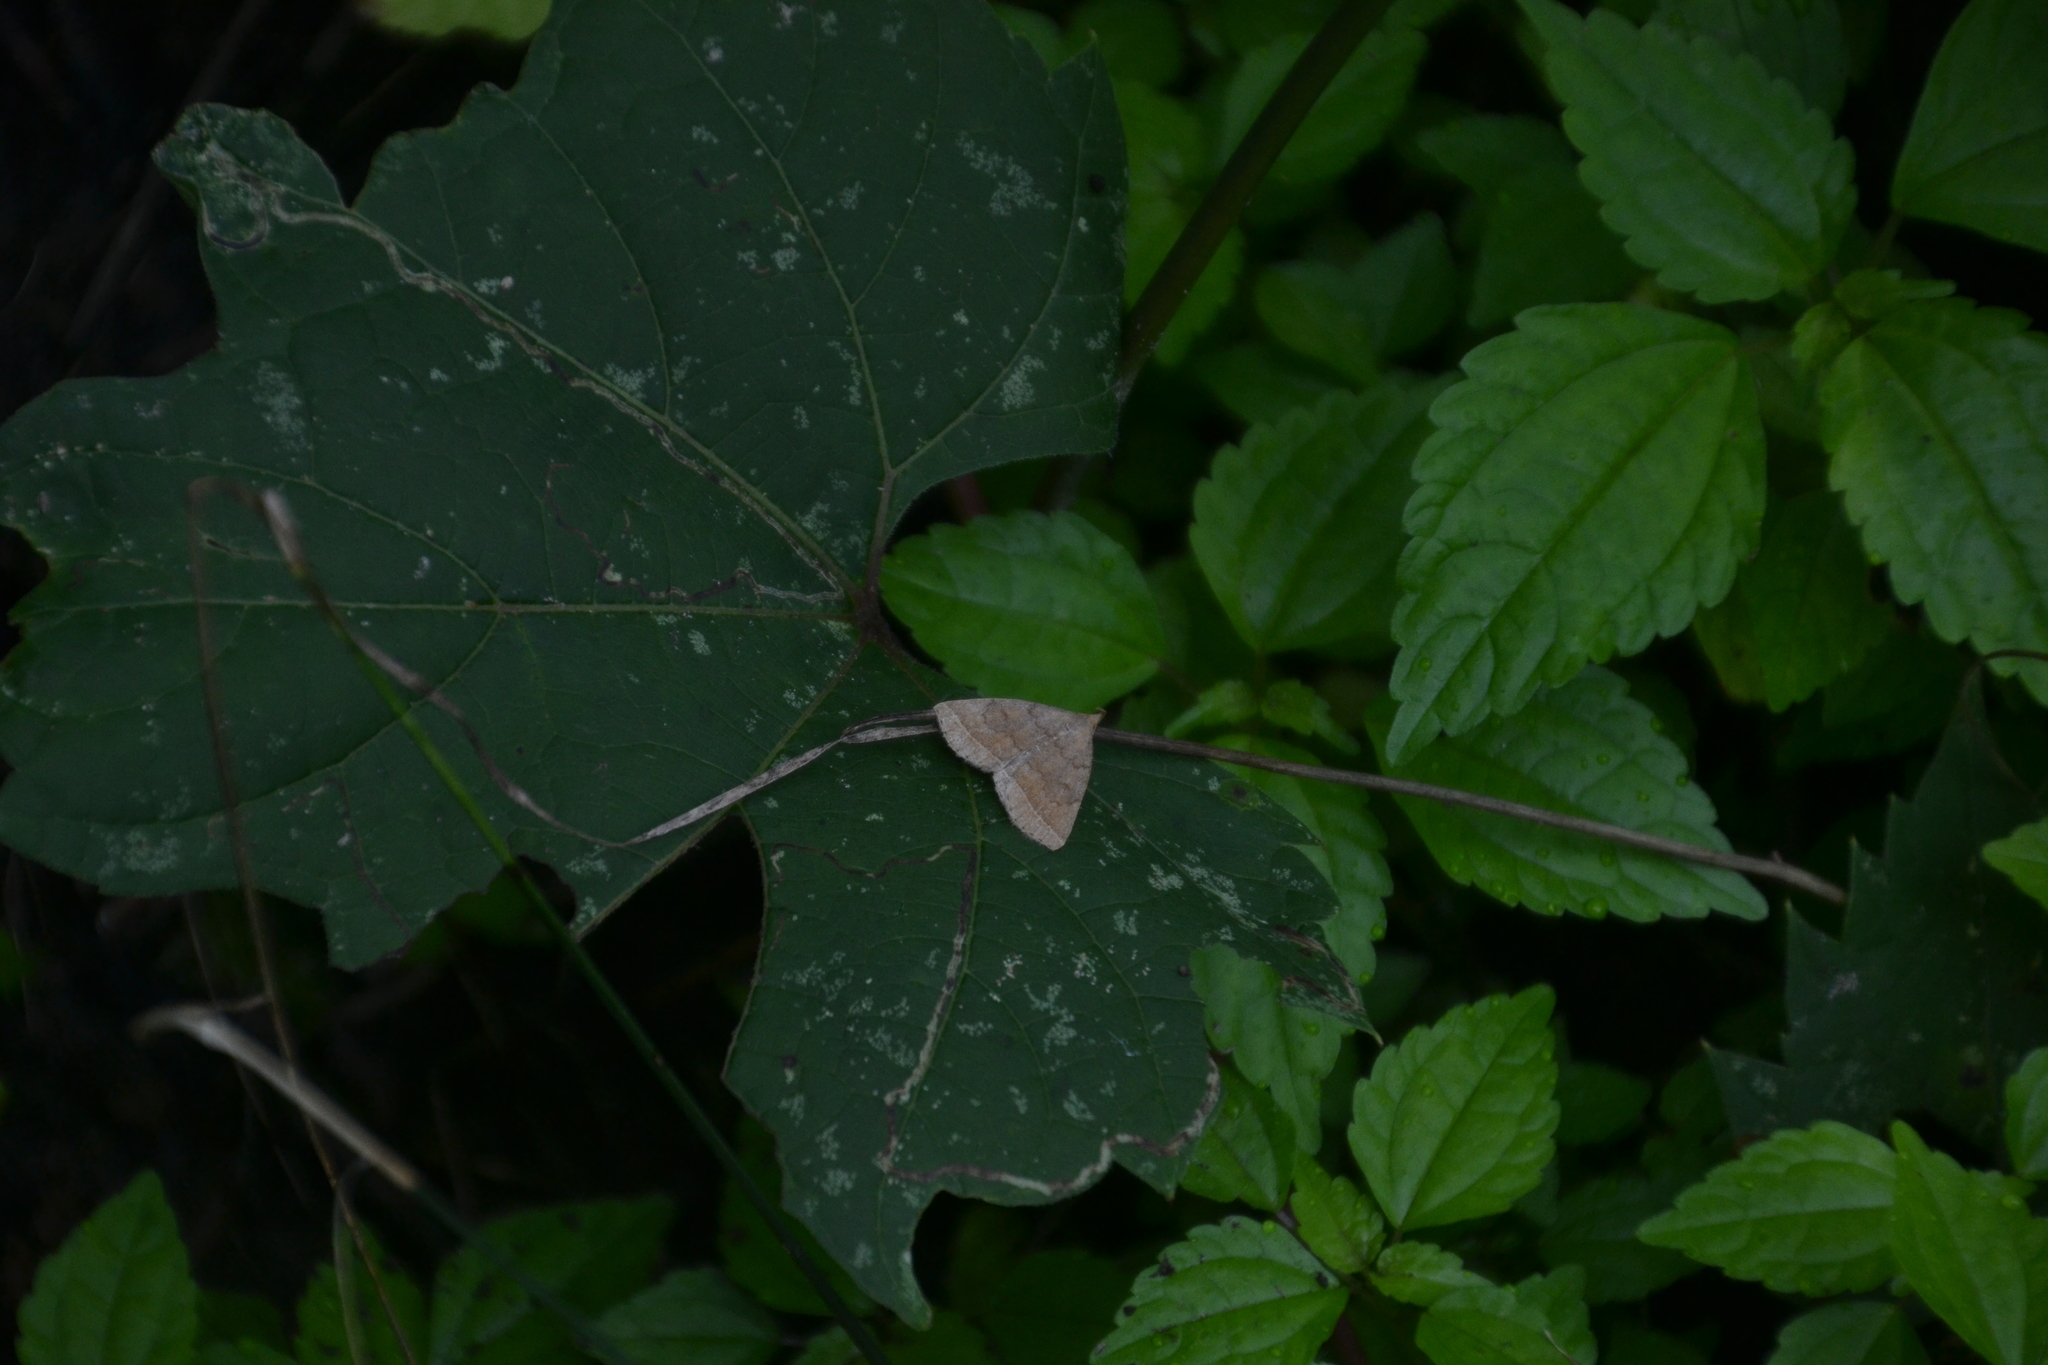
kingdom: Animalia
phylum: Arthropoda
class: Insecta
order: Lepidoptera
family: Erebidae
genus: Zanclognatha
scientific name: Zanclognatha jacchusalis
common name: Yellowish zanclognatha
